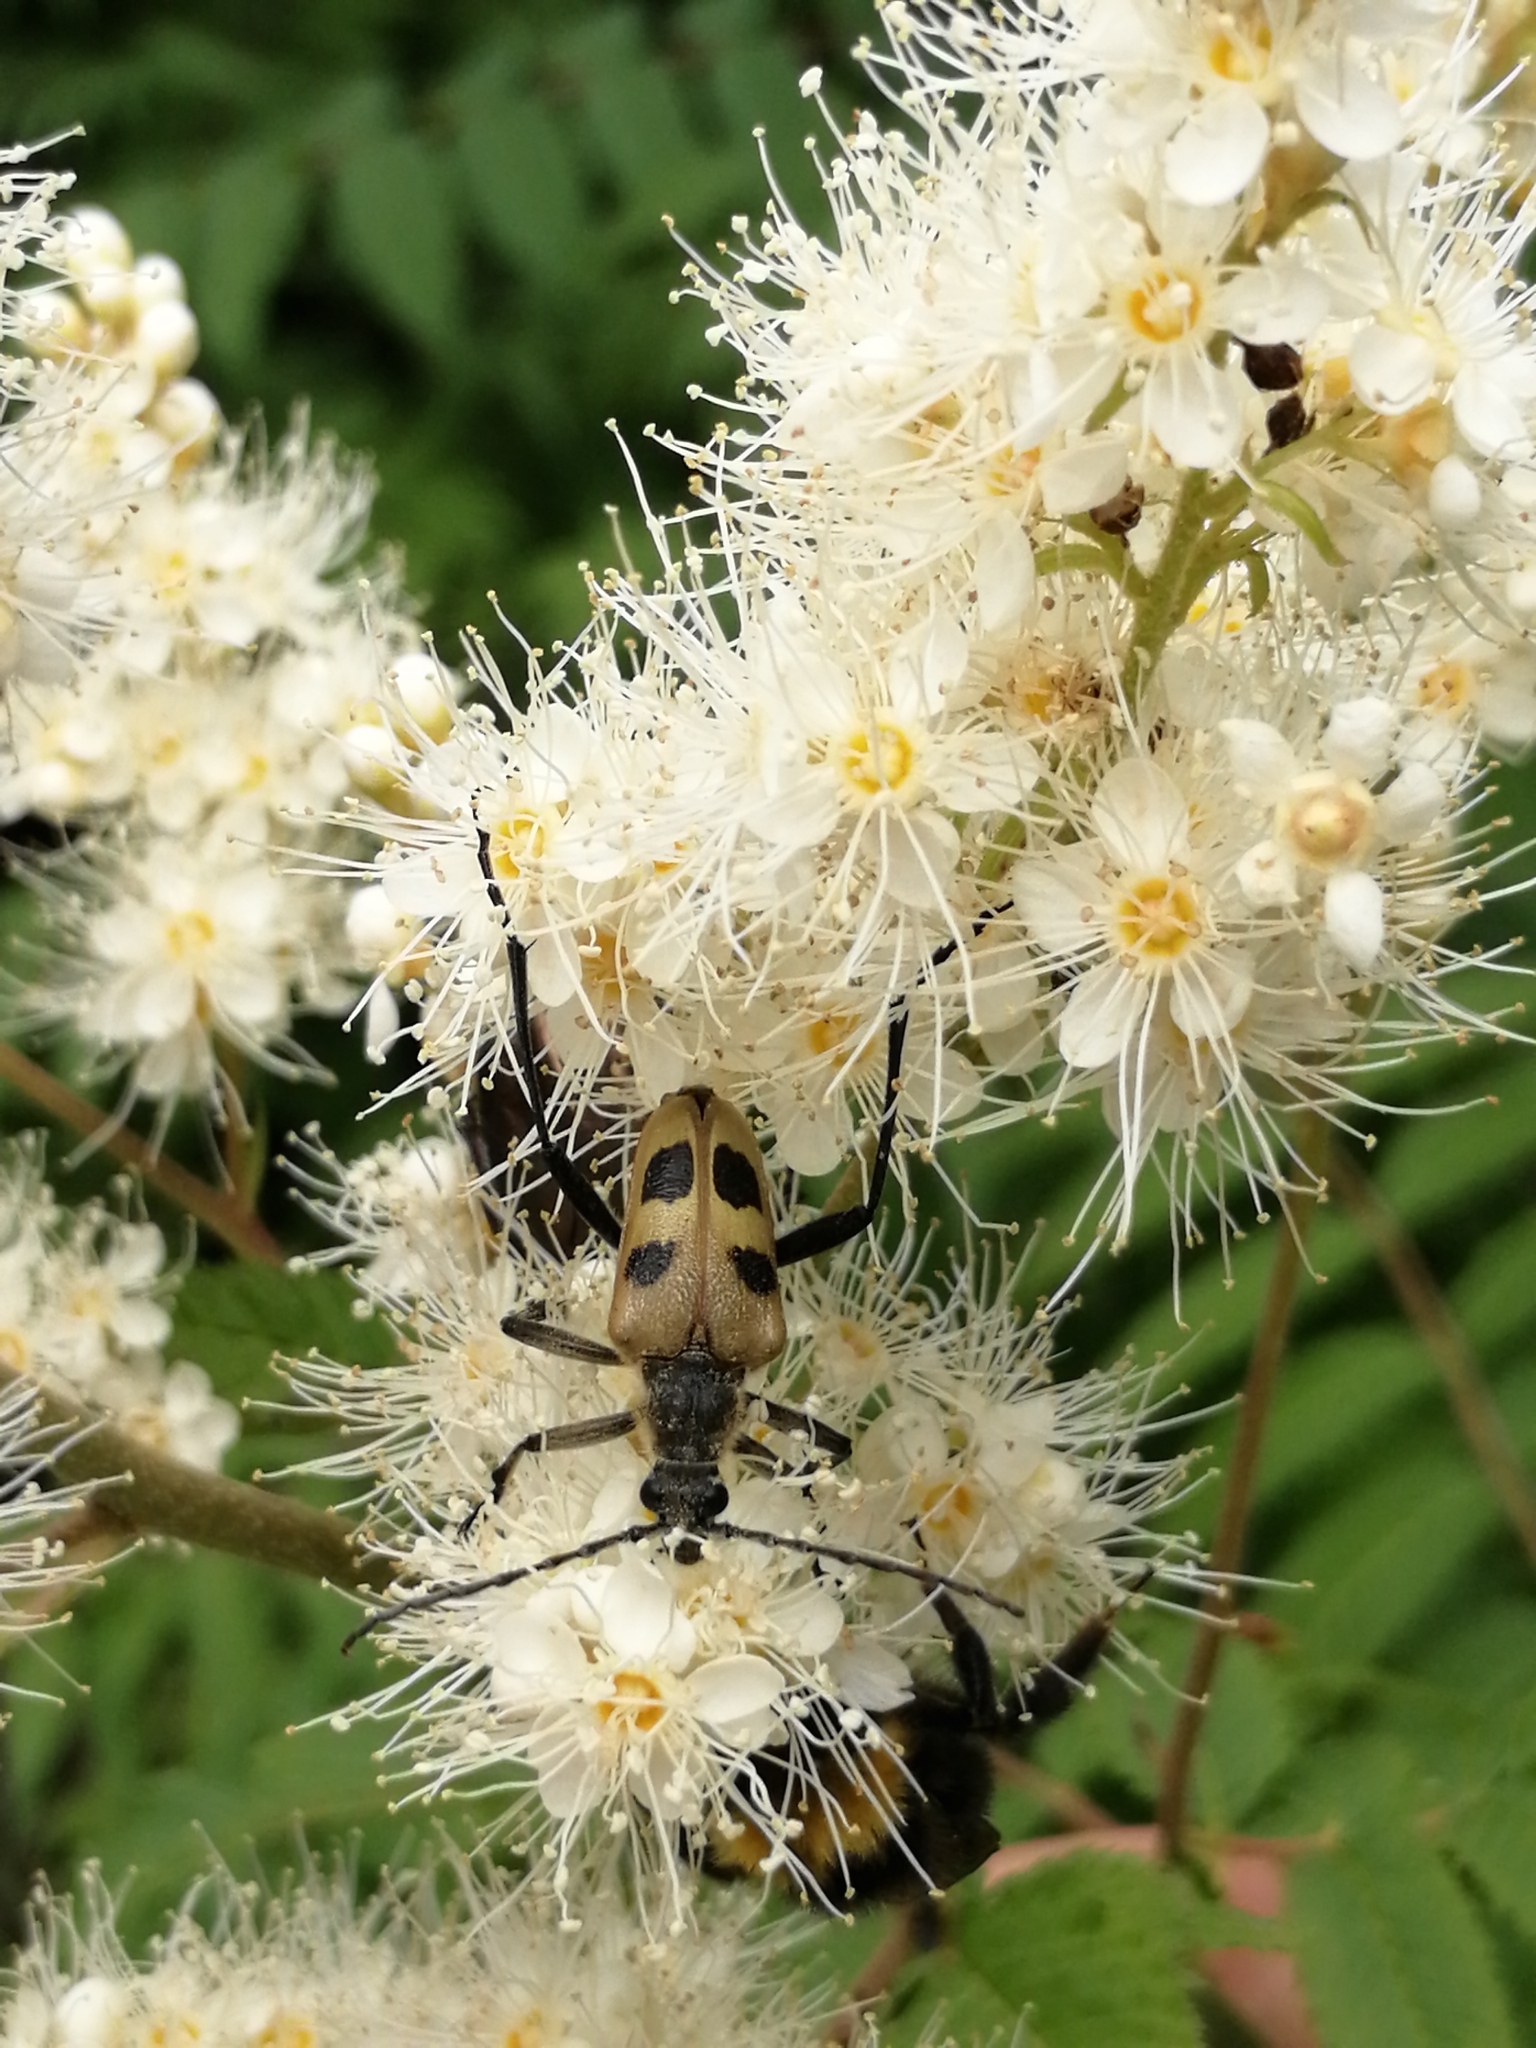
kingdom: Animalia
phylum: Arthropoda
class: Insecta
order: Coleoptera
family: Cerambycidae
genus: Pachyta
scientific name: Pachyta quadrimaculata
